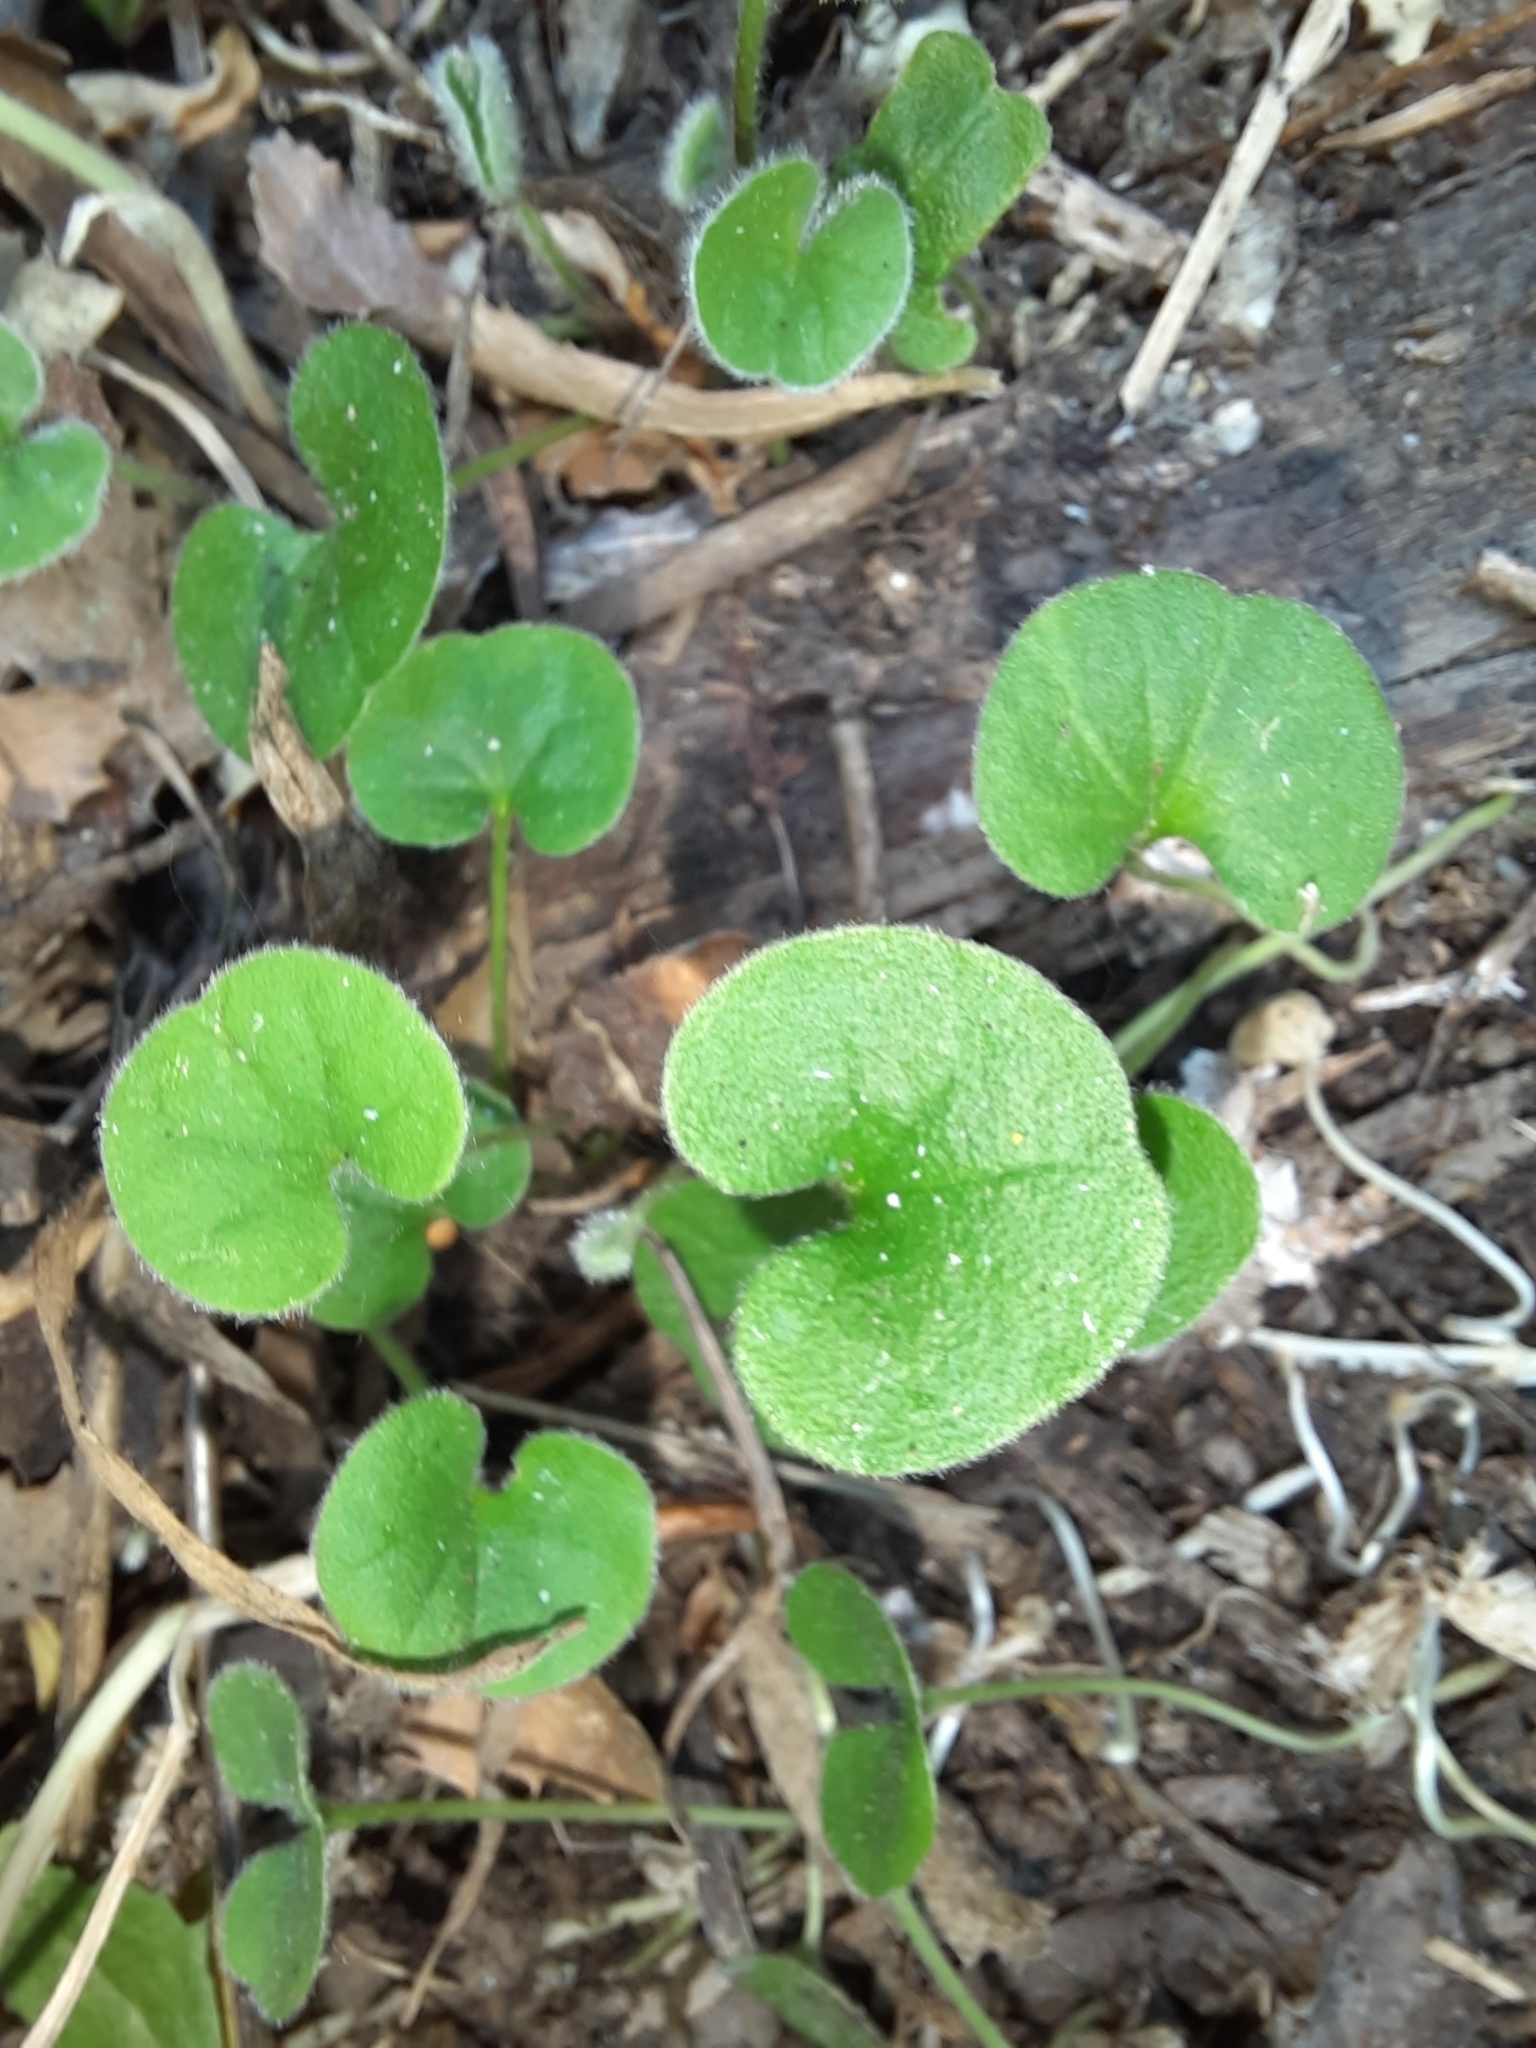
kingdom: Plantae
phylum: Tracheophyta
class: Magnoliopsida
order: Solanales
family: Convolvulaceae
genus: Dichondra
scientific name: Dichondra repens
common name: Kidneyweed
